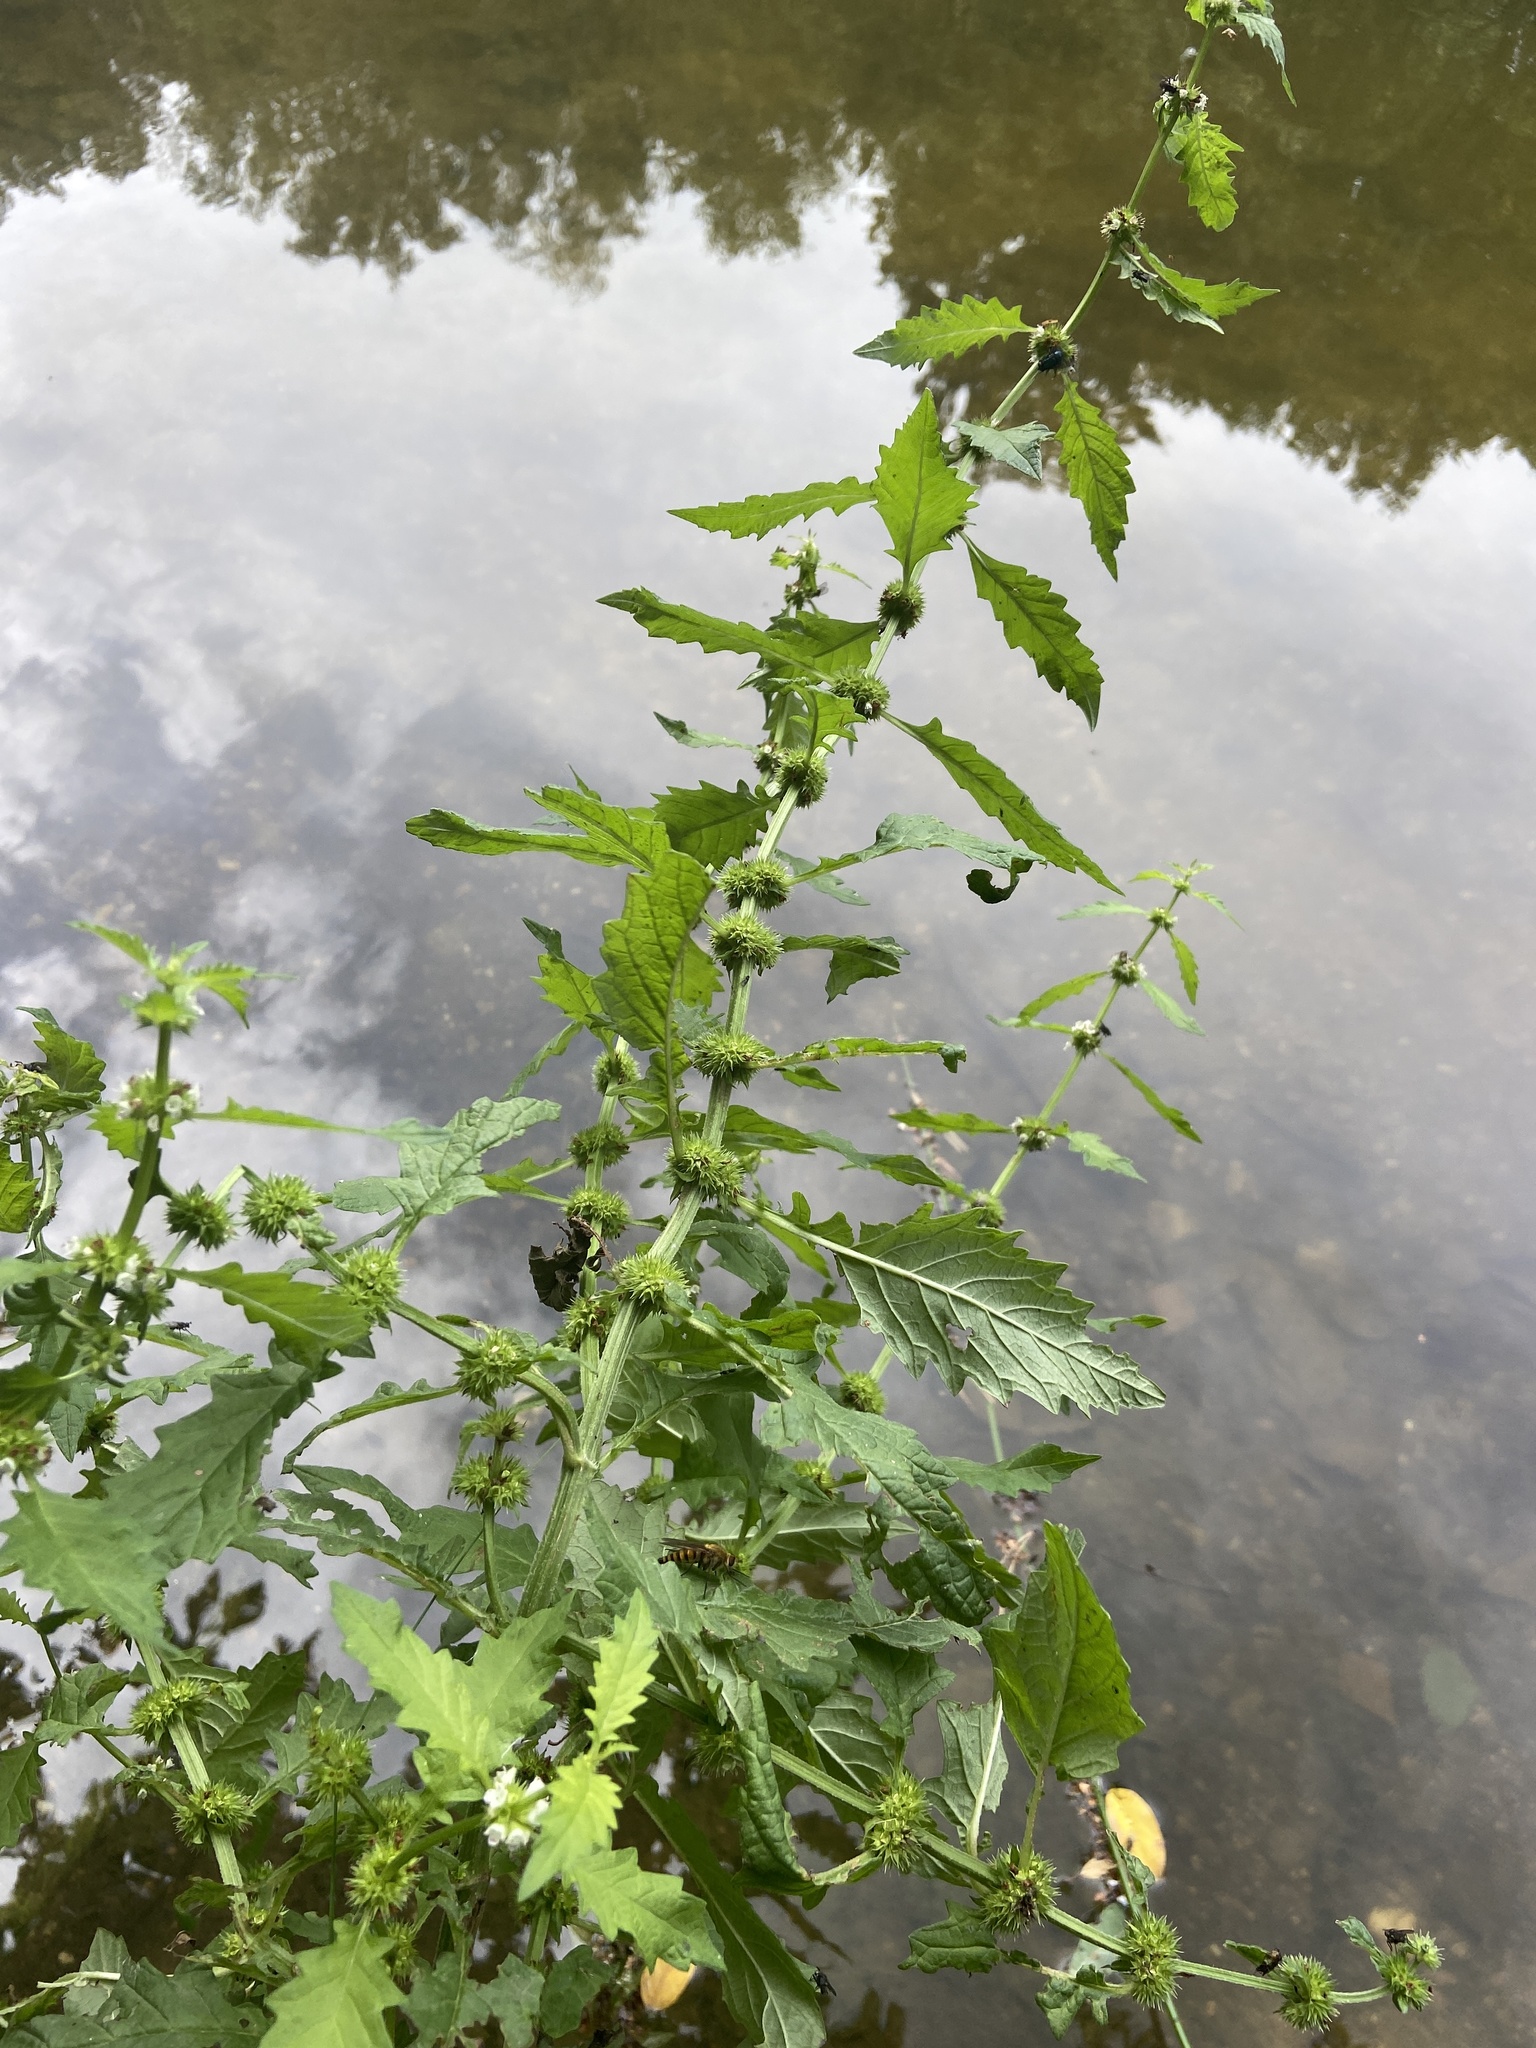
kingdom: Plantae
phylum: Tracheophyta
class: Magnoliopsida
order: Lamiales
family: Lamiaceae
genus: Lycopus
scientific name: Lycopus europaeus
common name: European bugleweed
